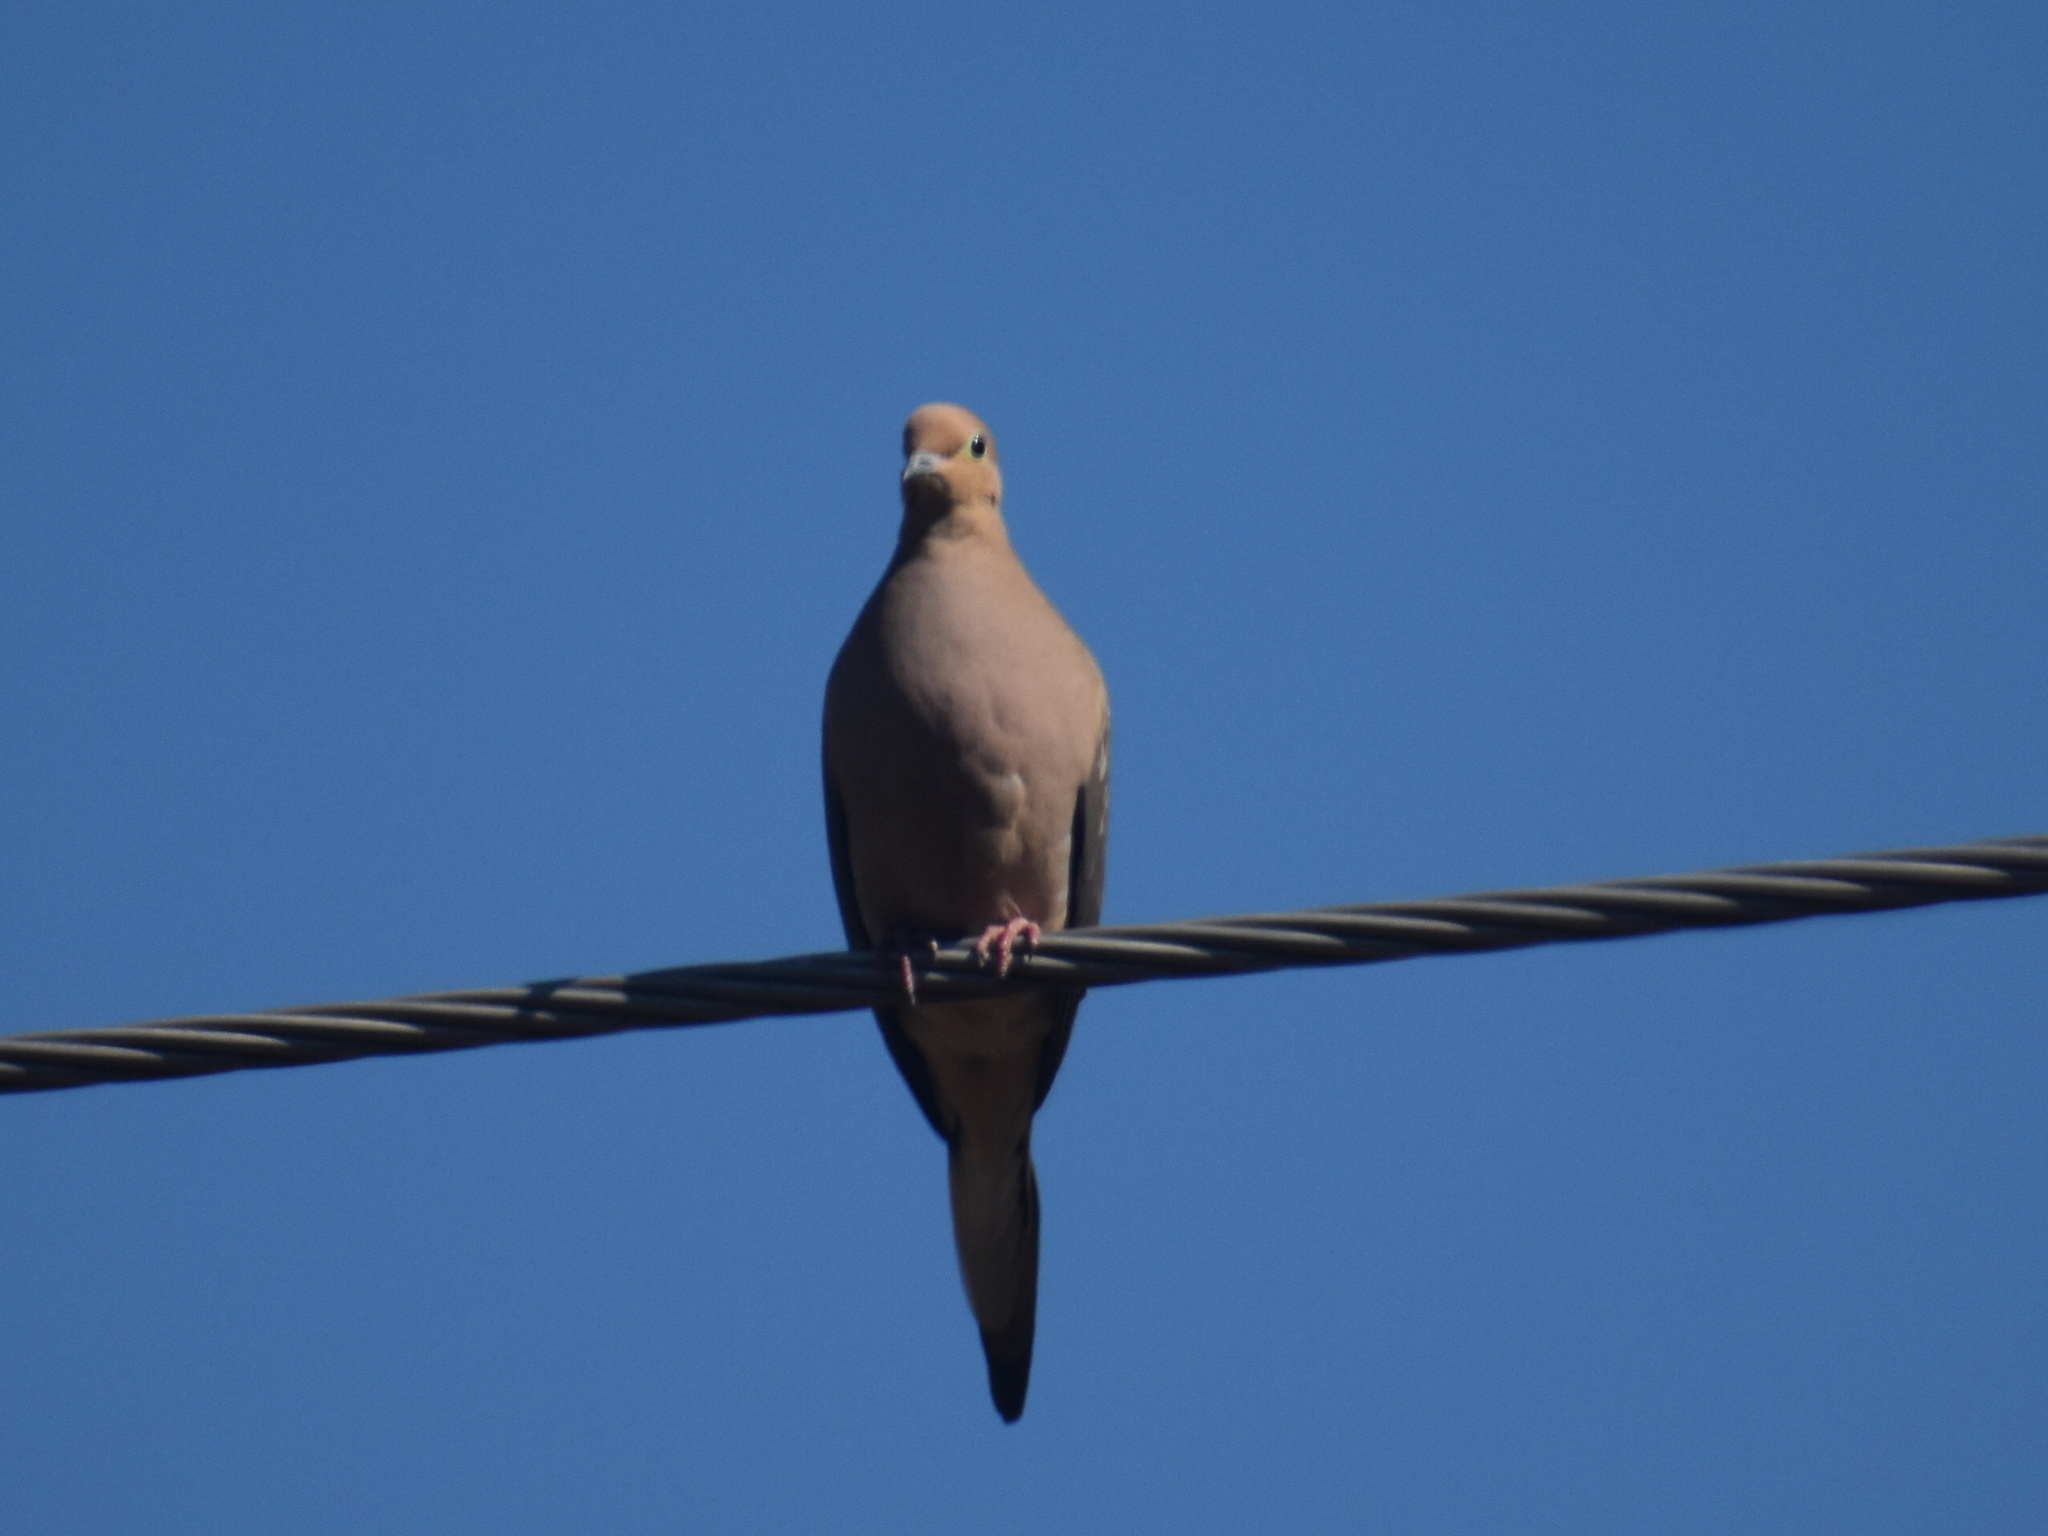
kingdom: Animalia
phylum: Chordata
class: Aves
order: Columbiformes
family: Columbidae
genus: Zenaida
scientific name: Zenaida macroura
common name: Mourning dove
